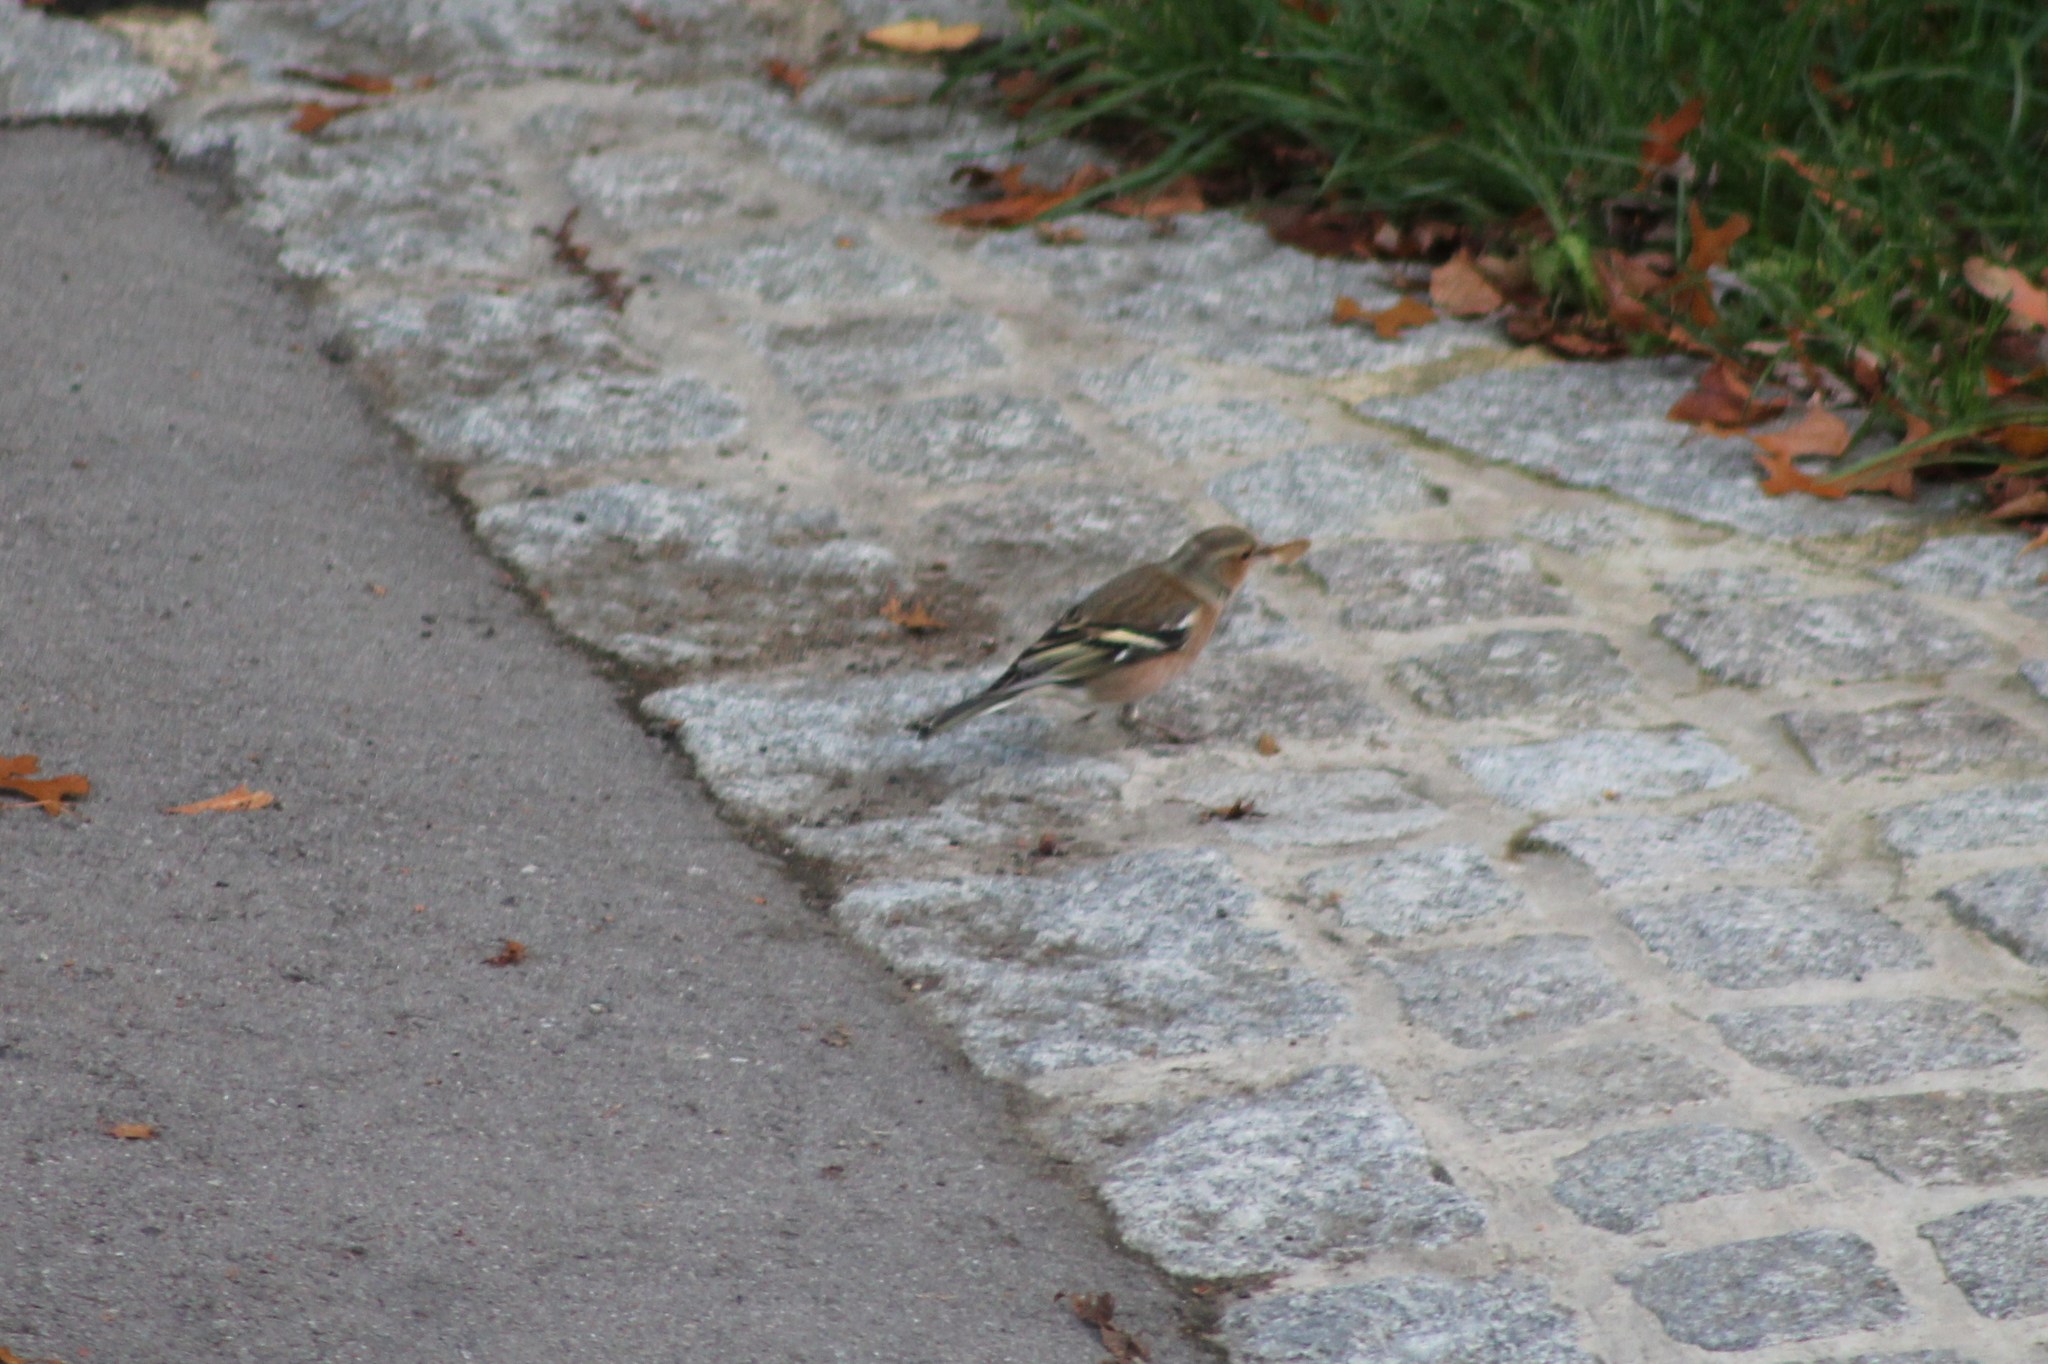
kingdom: Animalia
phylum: Chordata
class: Aves
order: Passeriformes
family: Fringillidae
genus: Fringilla
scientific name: Fringilla coelebs
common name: Common chaffinch
